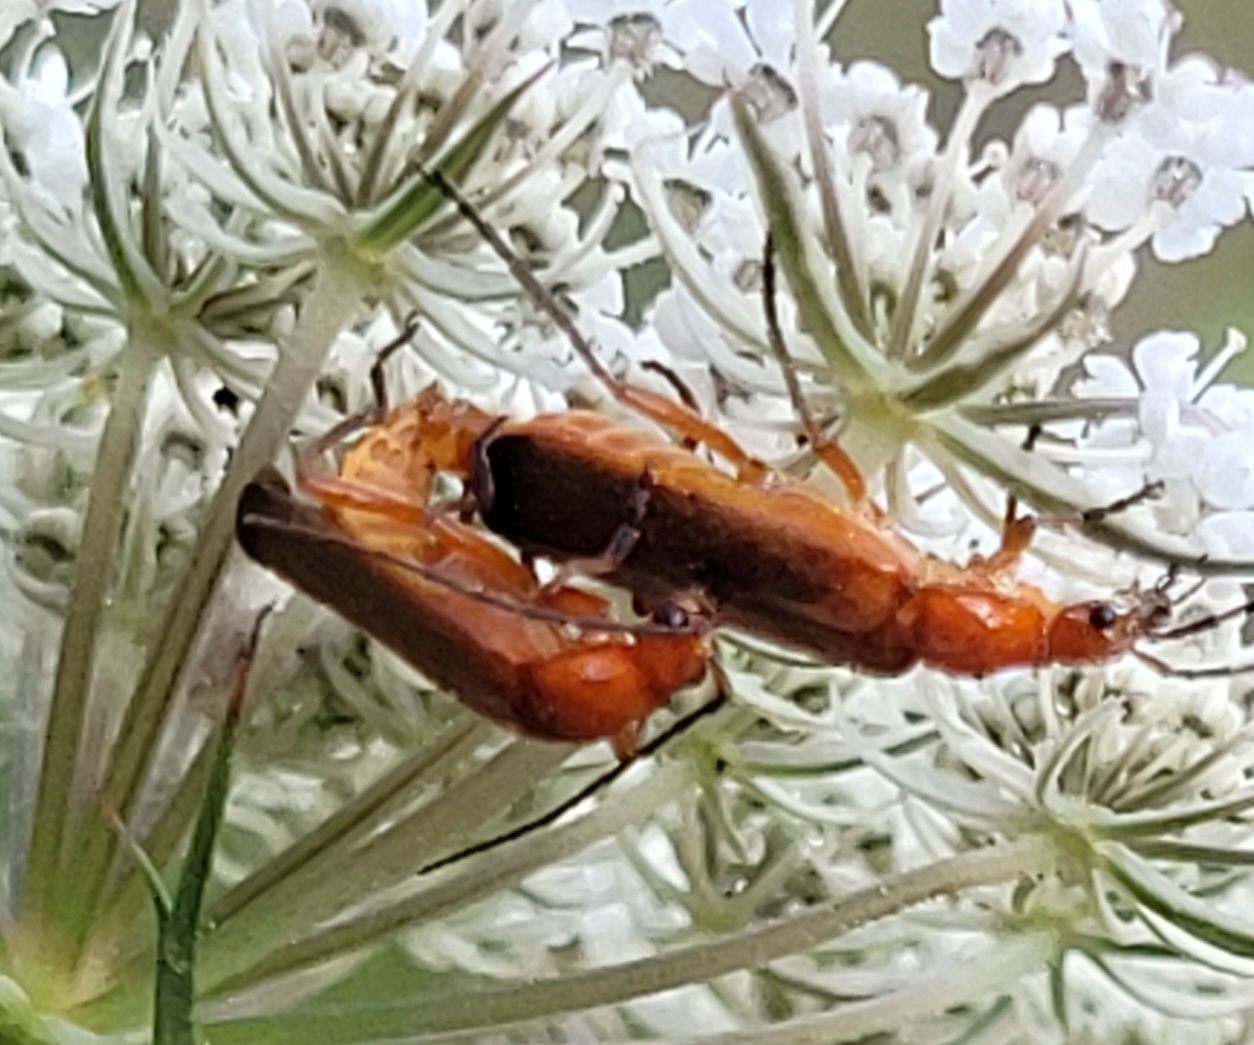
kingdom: Animalia
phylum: Arthropoda
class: Insecta
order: Coleoptera
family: Cantharidae
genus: Rhagonycha
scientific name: Rhagonycha fulva
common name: Common red soldier beetle
